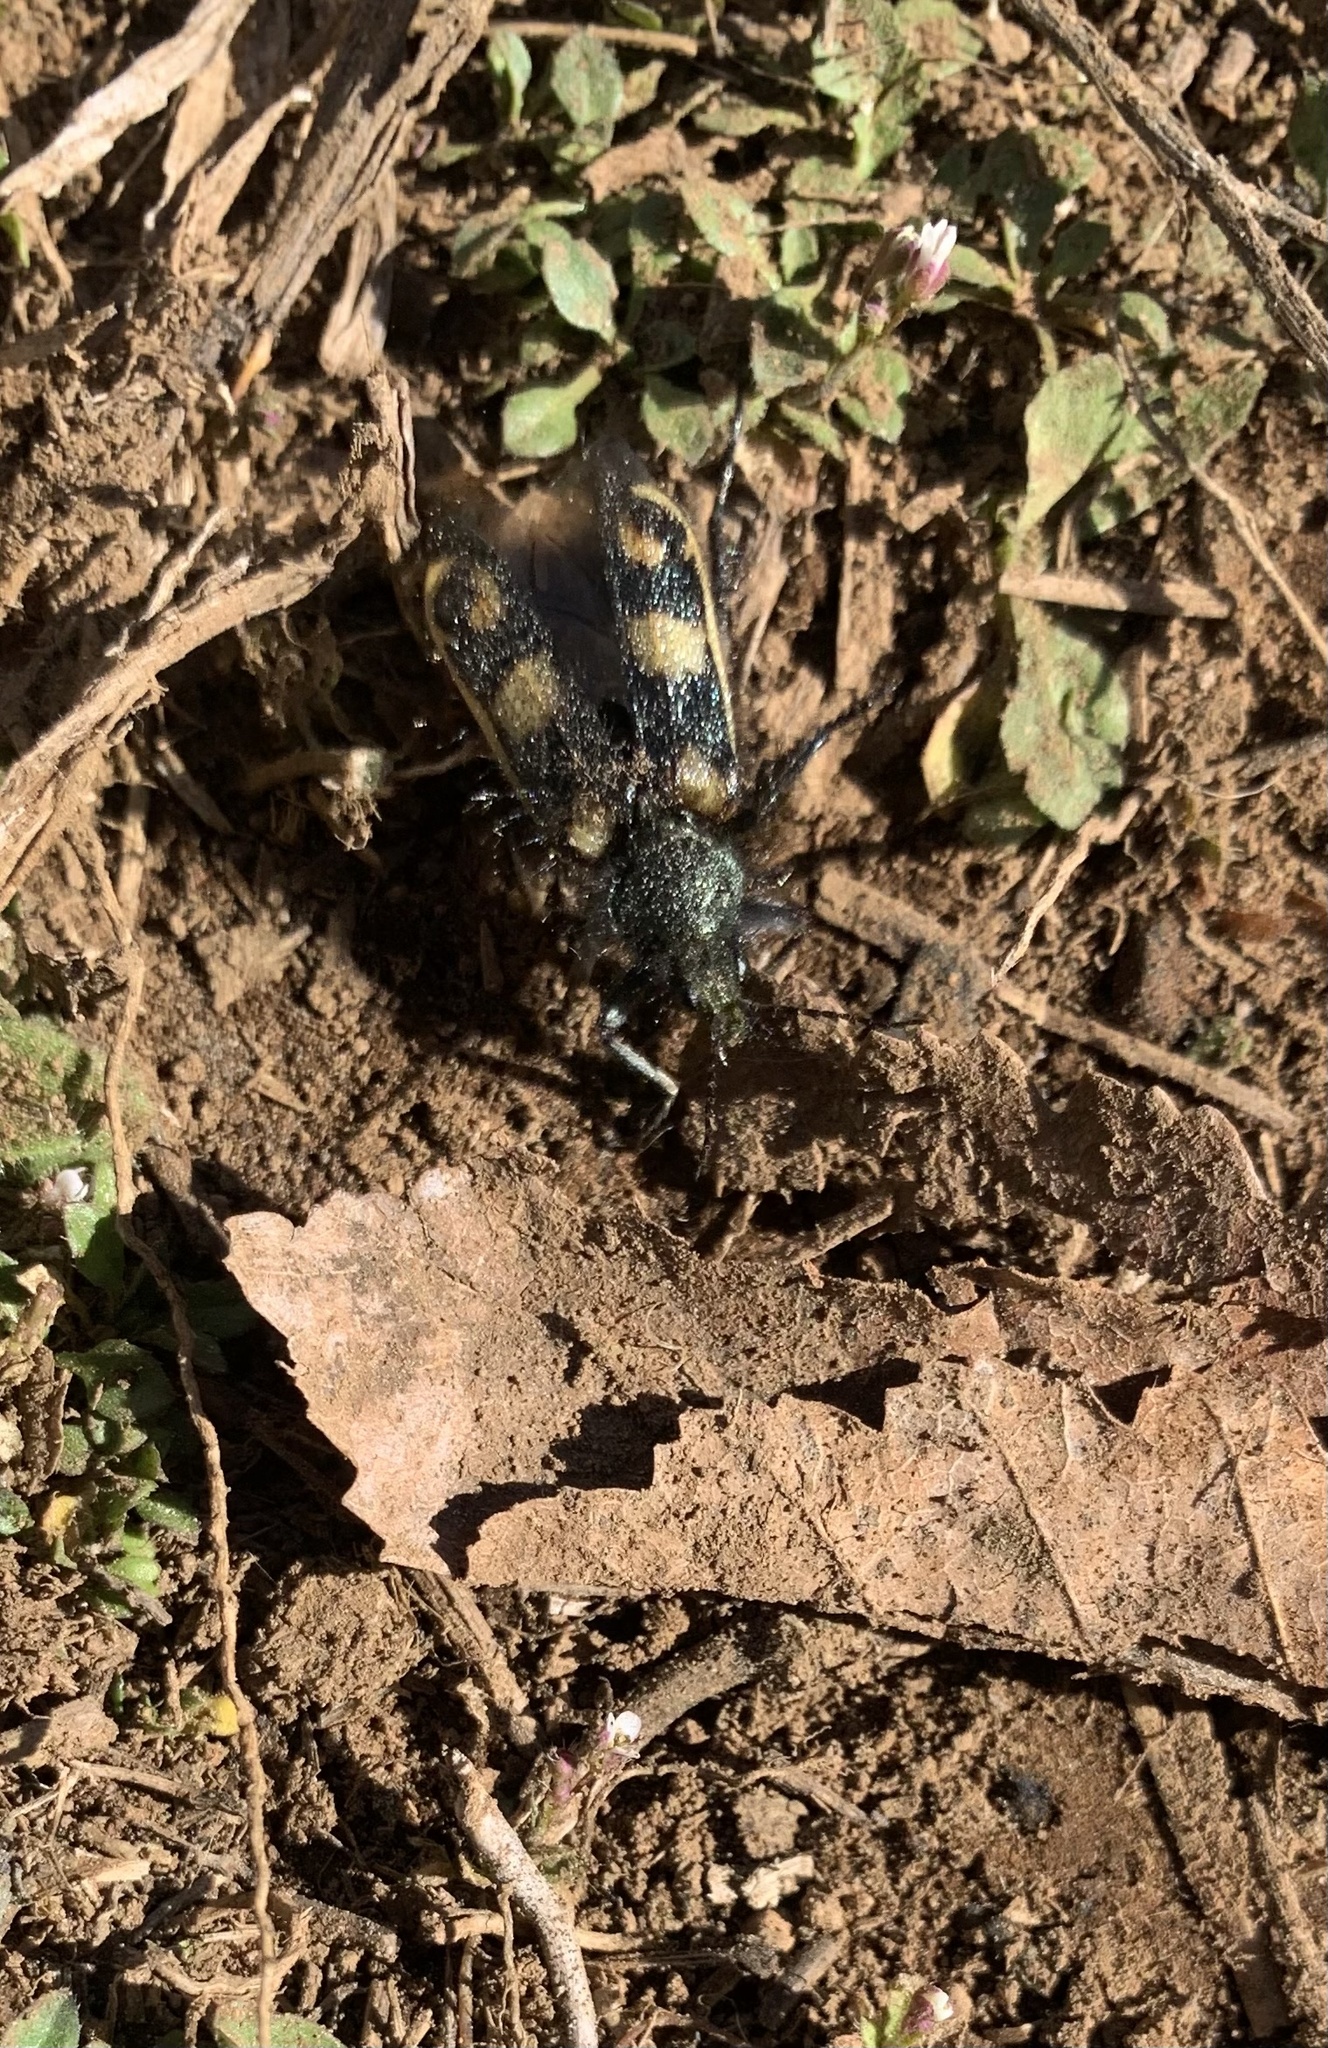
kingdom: Animalia
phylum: Arthropoda
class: Insecta
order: Coleoptera
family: Melyridae
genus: Astylus
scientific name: Astylus
